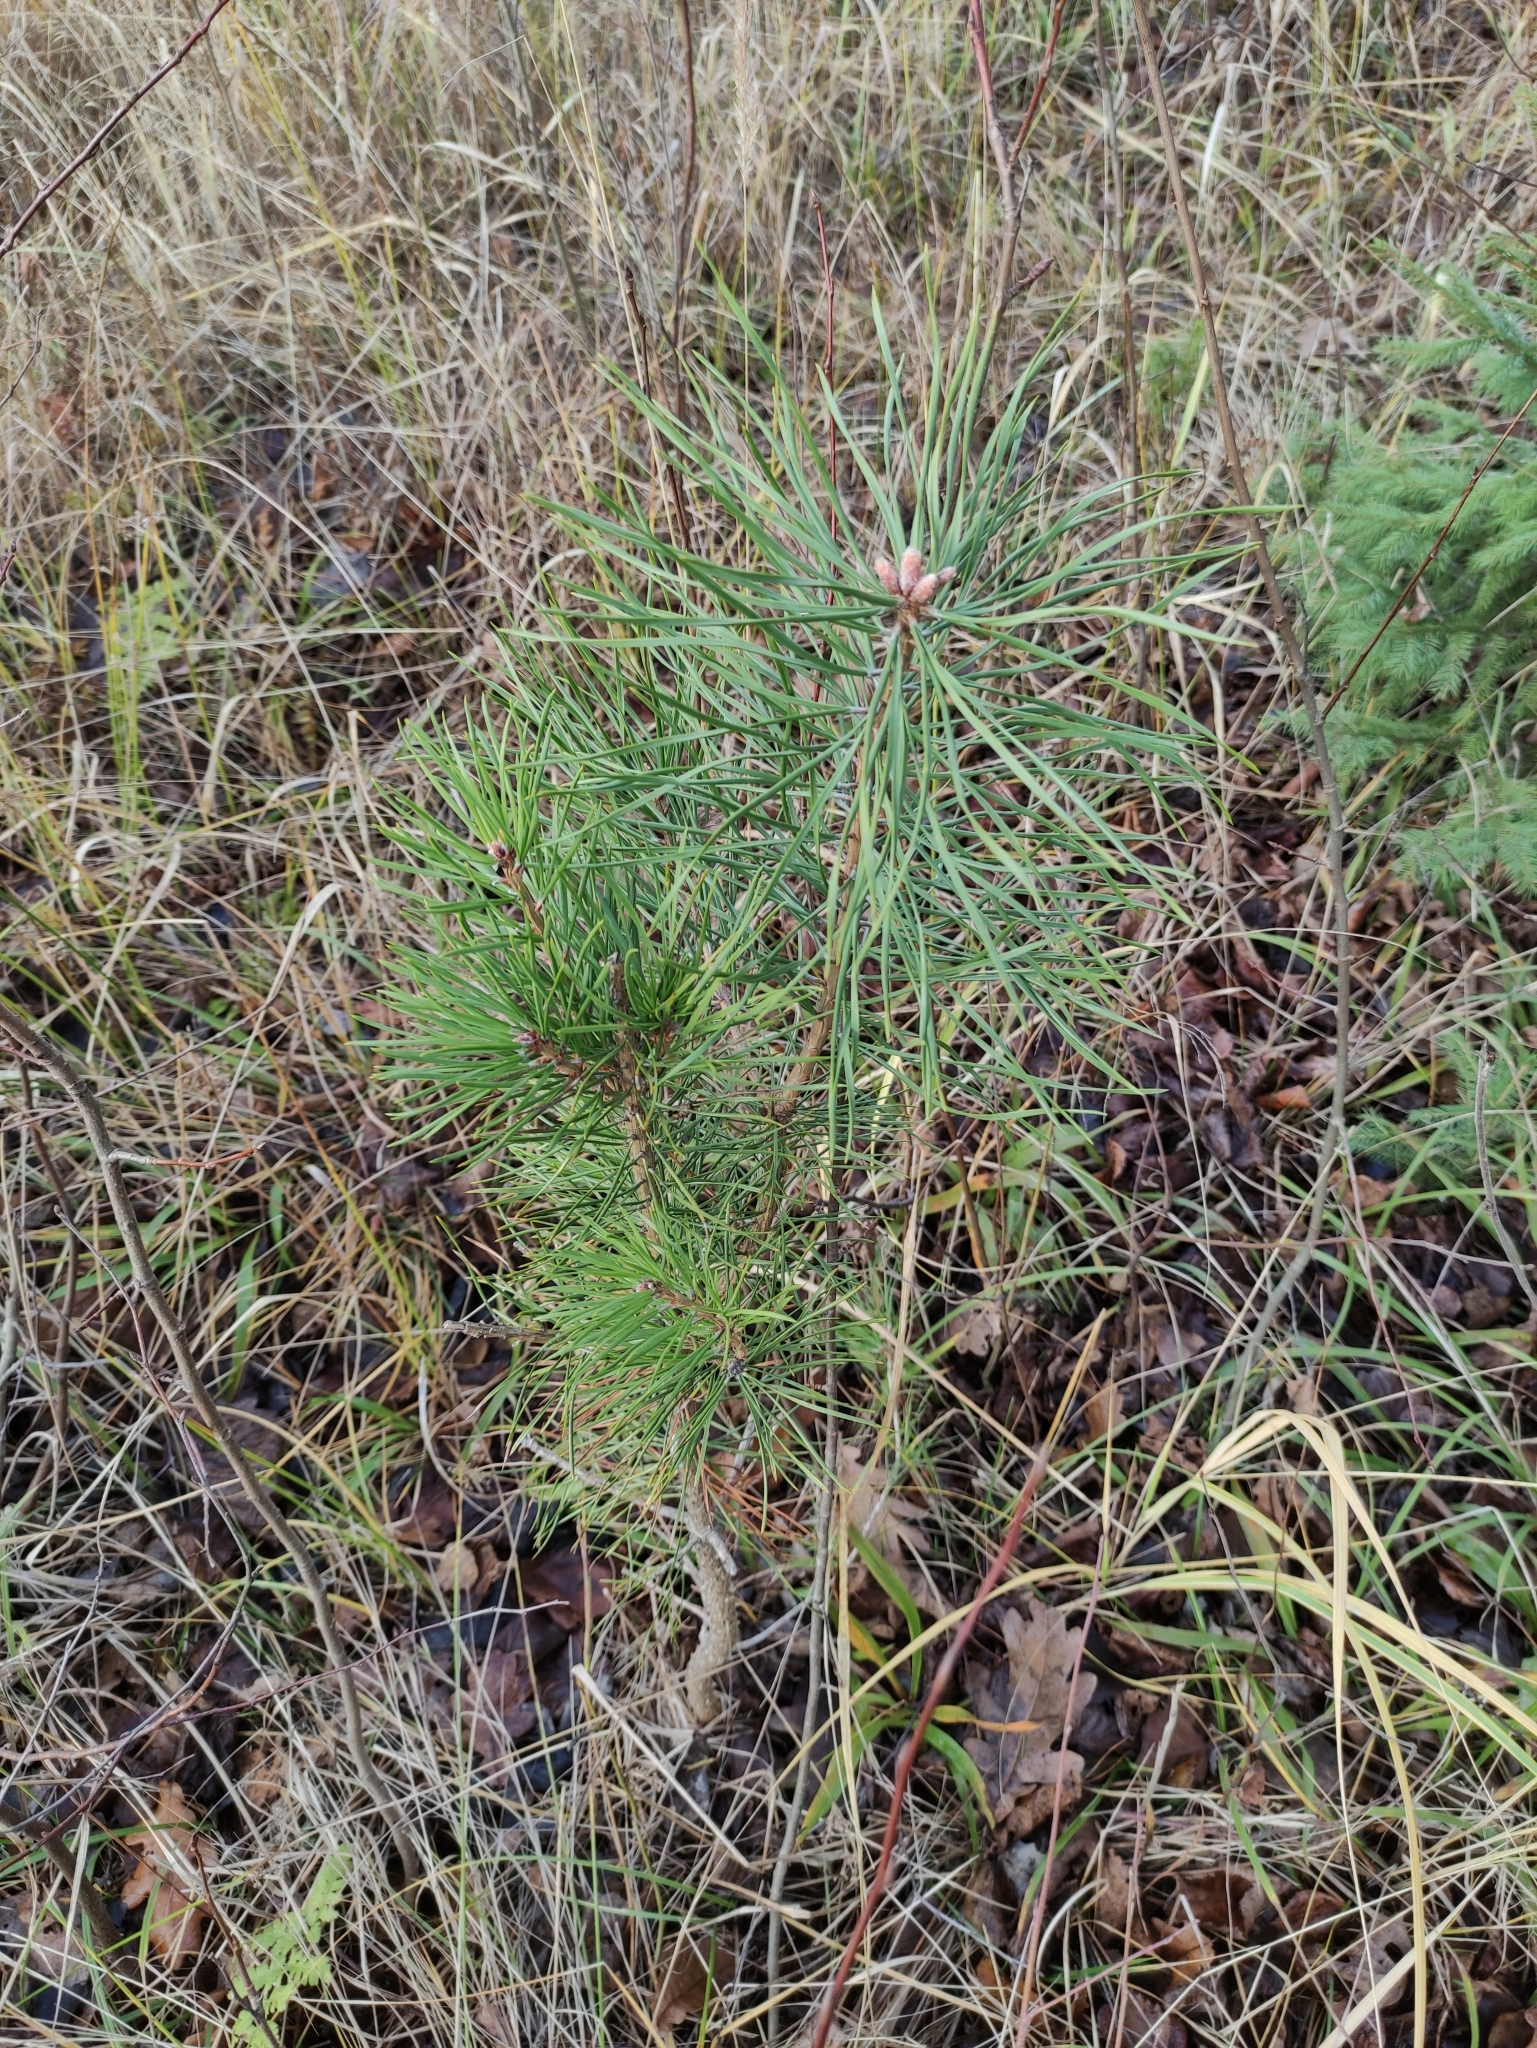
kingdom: Plantae
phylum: Tracheophyta
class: Pinopsida
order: Pinales
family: Pinaceae
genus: Pinus
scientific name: Pinus sylvestris
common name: Scots pine
